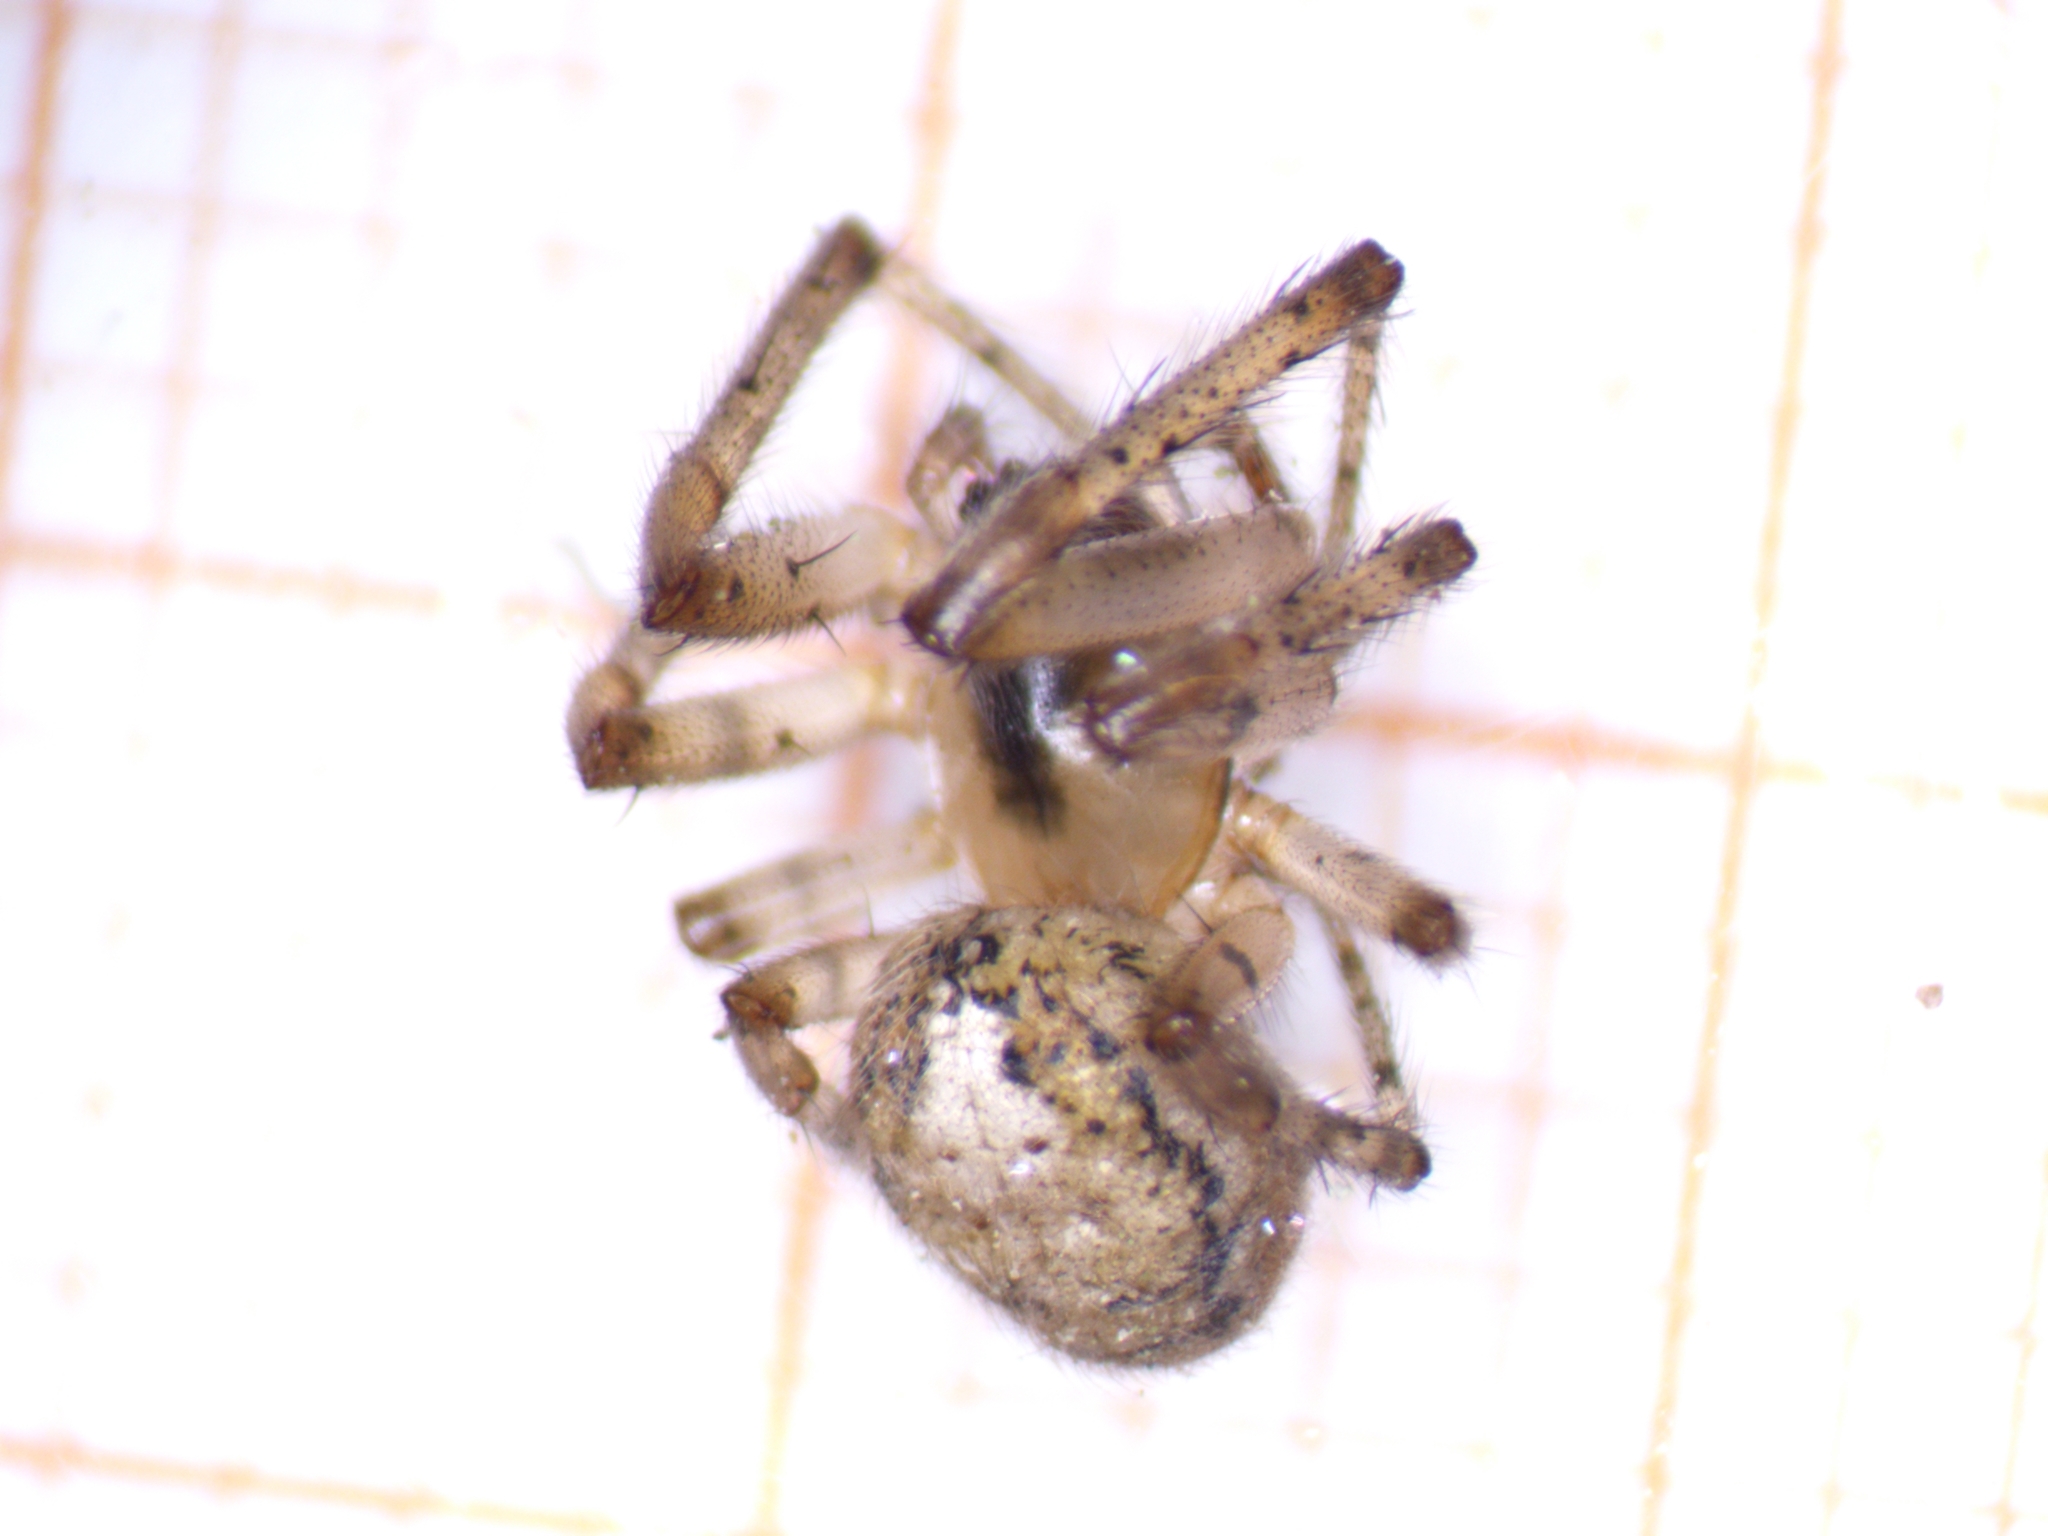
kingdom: Animalia
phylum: Arthropoda
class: Arachnida
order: Araneae
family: Araneidae
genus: Zygiella
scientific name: Zygiella x-notata
